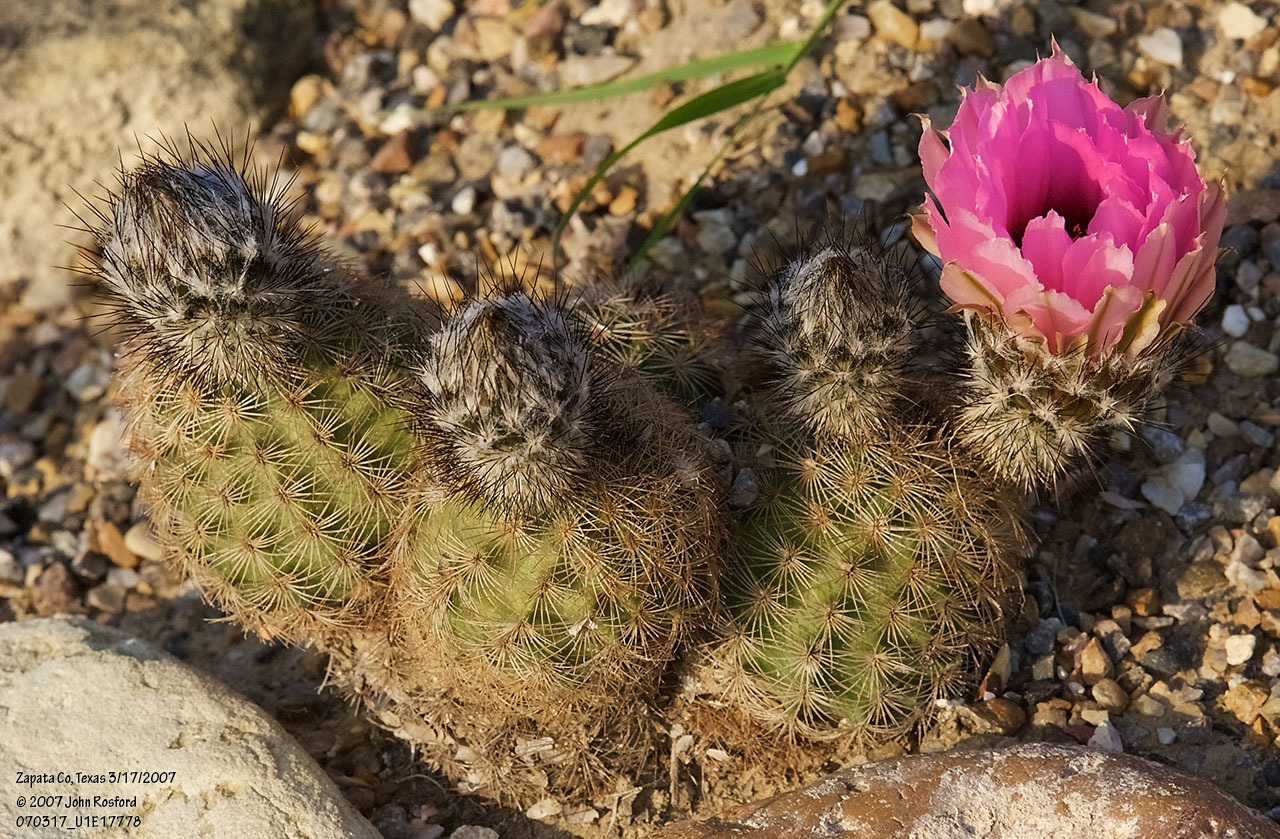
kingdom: Plantae
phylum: Tracheophyta
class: Magnoliopsida
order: Caryophyllales
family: Cactaceae
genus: Echinocereus
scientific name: Echinocereus reichenbachii
